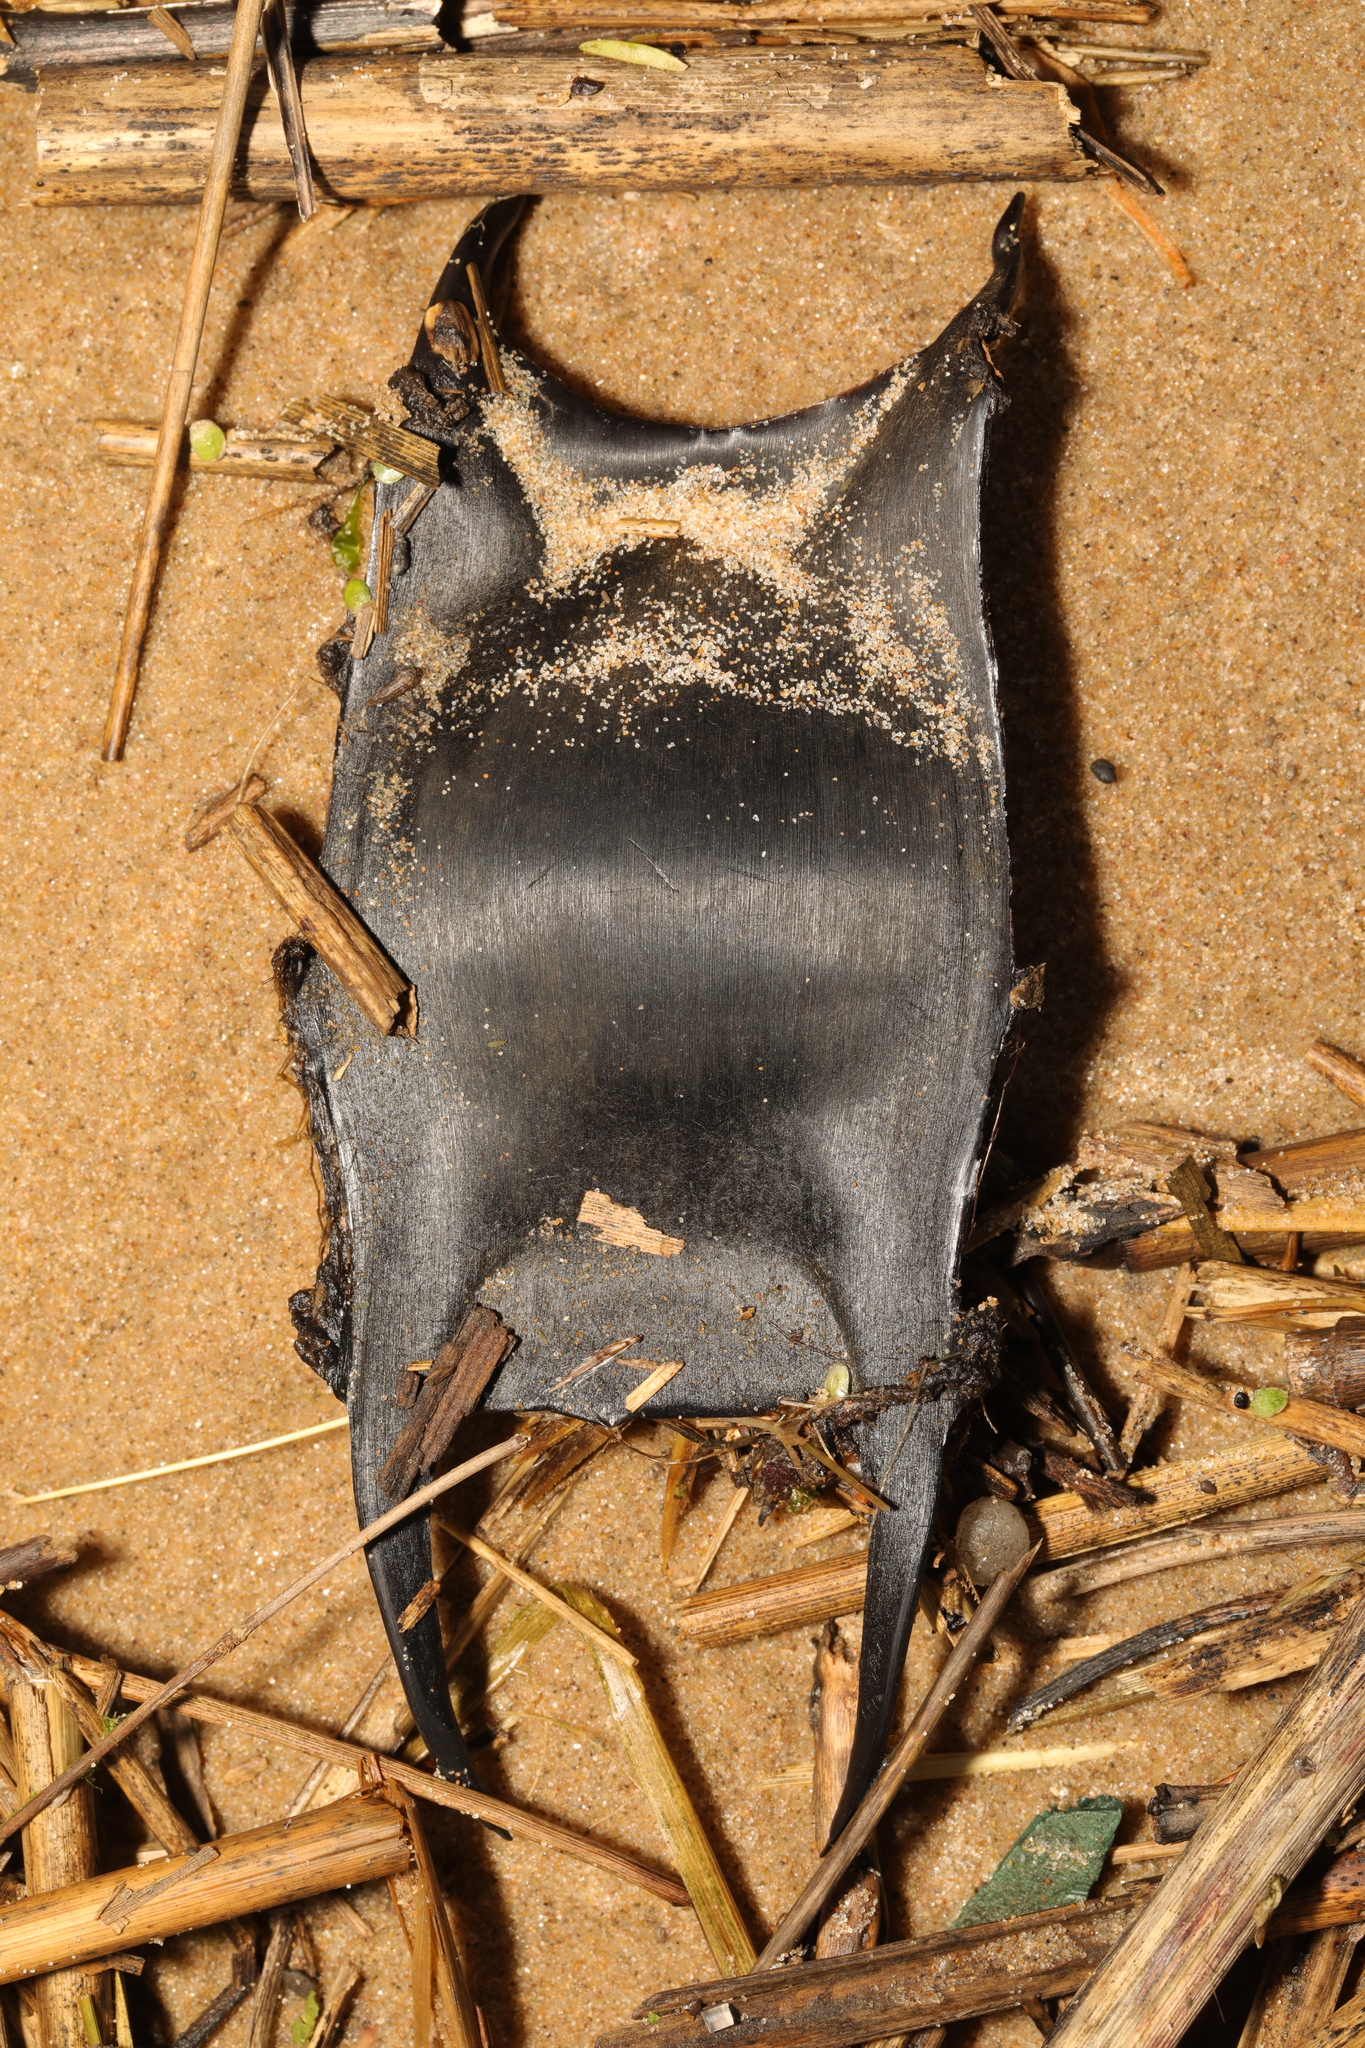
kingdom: Animalia
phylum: Chordata
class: Elasmobranchii
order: Rajiformes
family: Rajidae
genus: Raja
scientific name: Raja clavata
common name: Thornback ray
